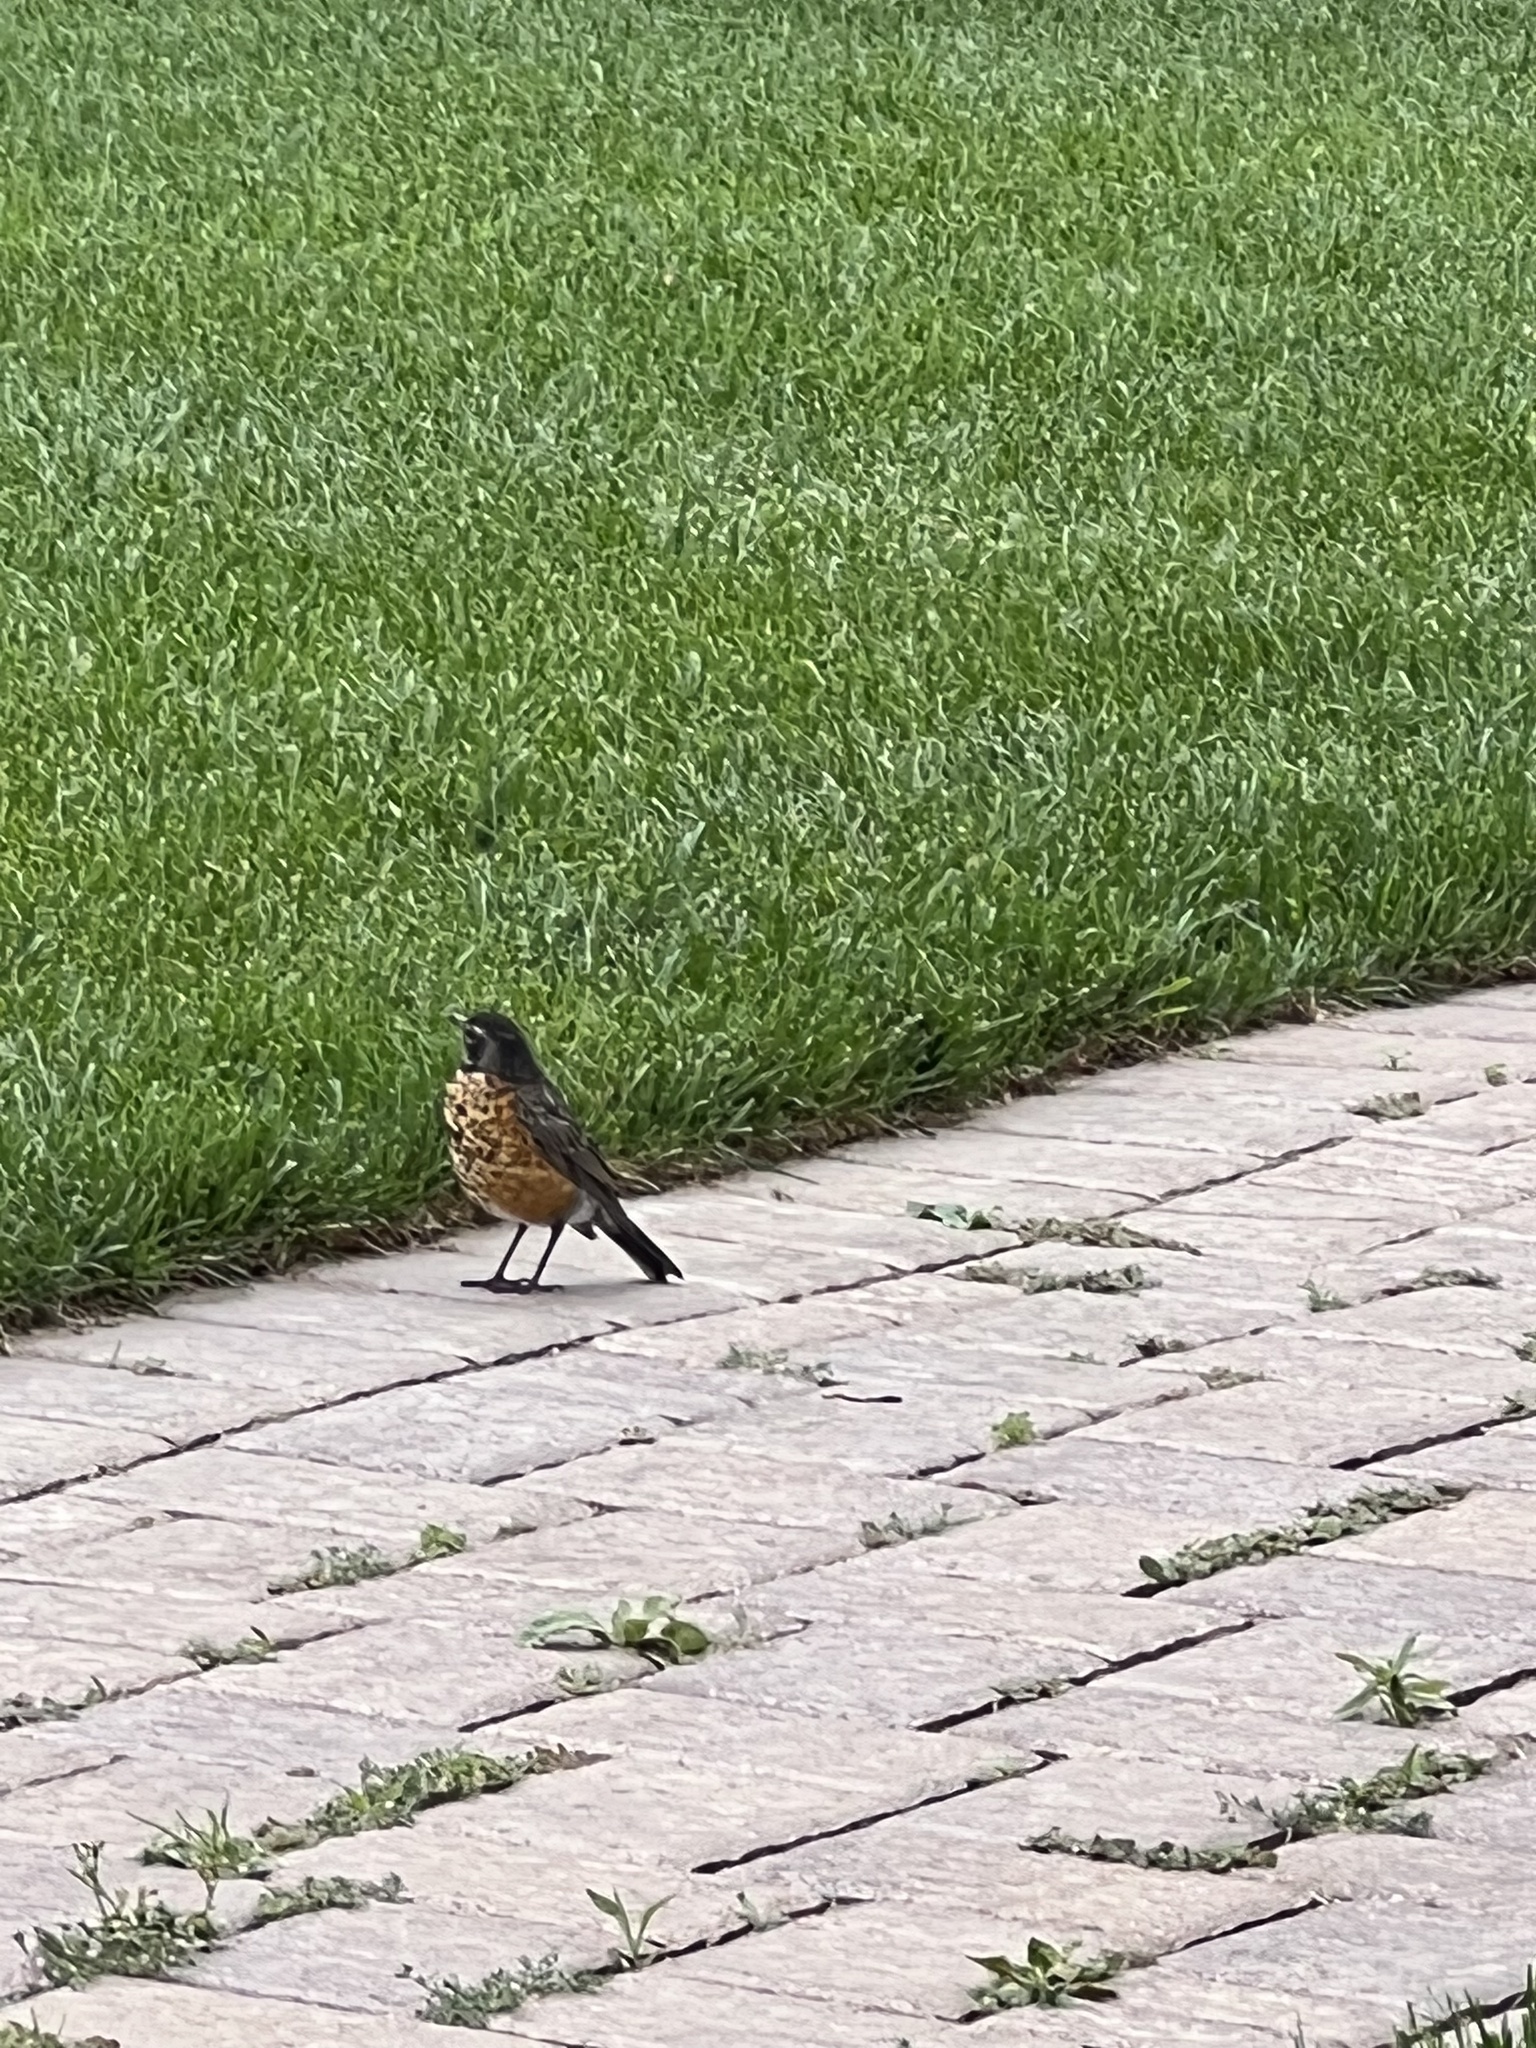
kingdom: Animalia
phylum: Chordata
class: Aves
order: Passeriformes
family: Turdidae
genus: Turdus
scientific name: Turdus migratorius
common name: American robin
